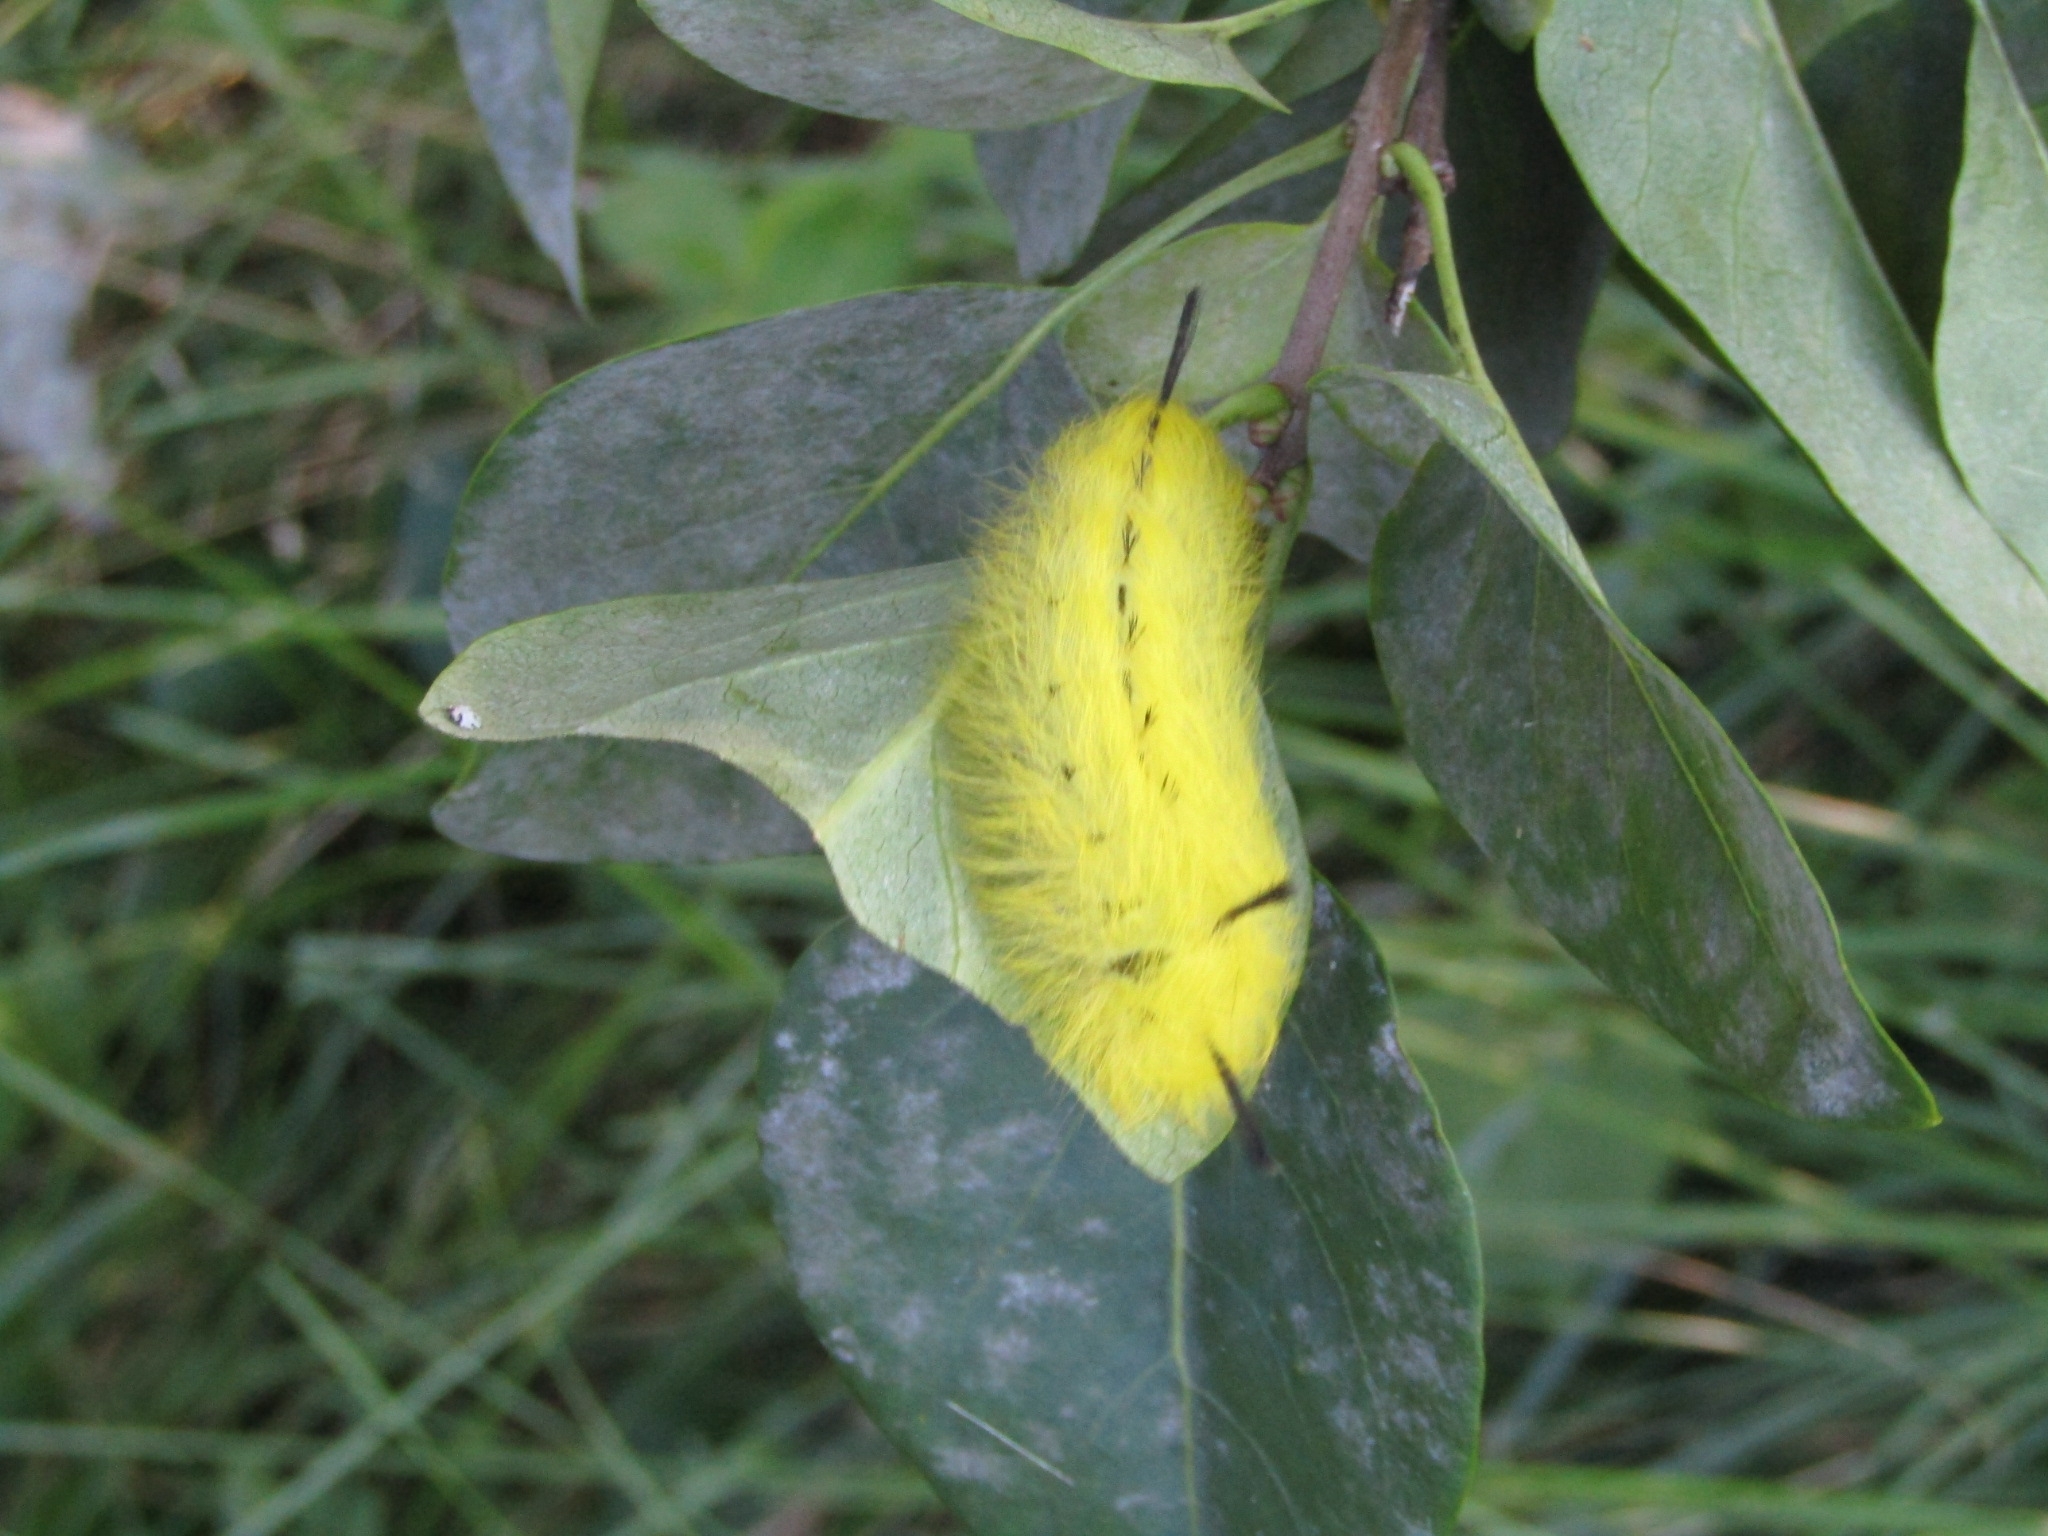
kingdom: Animalia
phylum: Arthropoda
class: Insecta
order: Lepidoptera
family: Apatelodidae
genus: Hygrochroa
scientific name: Hygrochroa Apatelodes torrefacta
